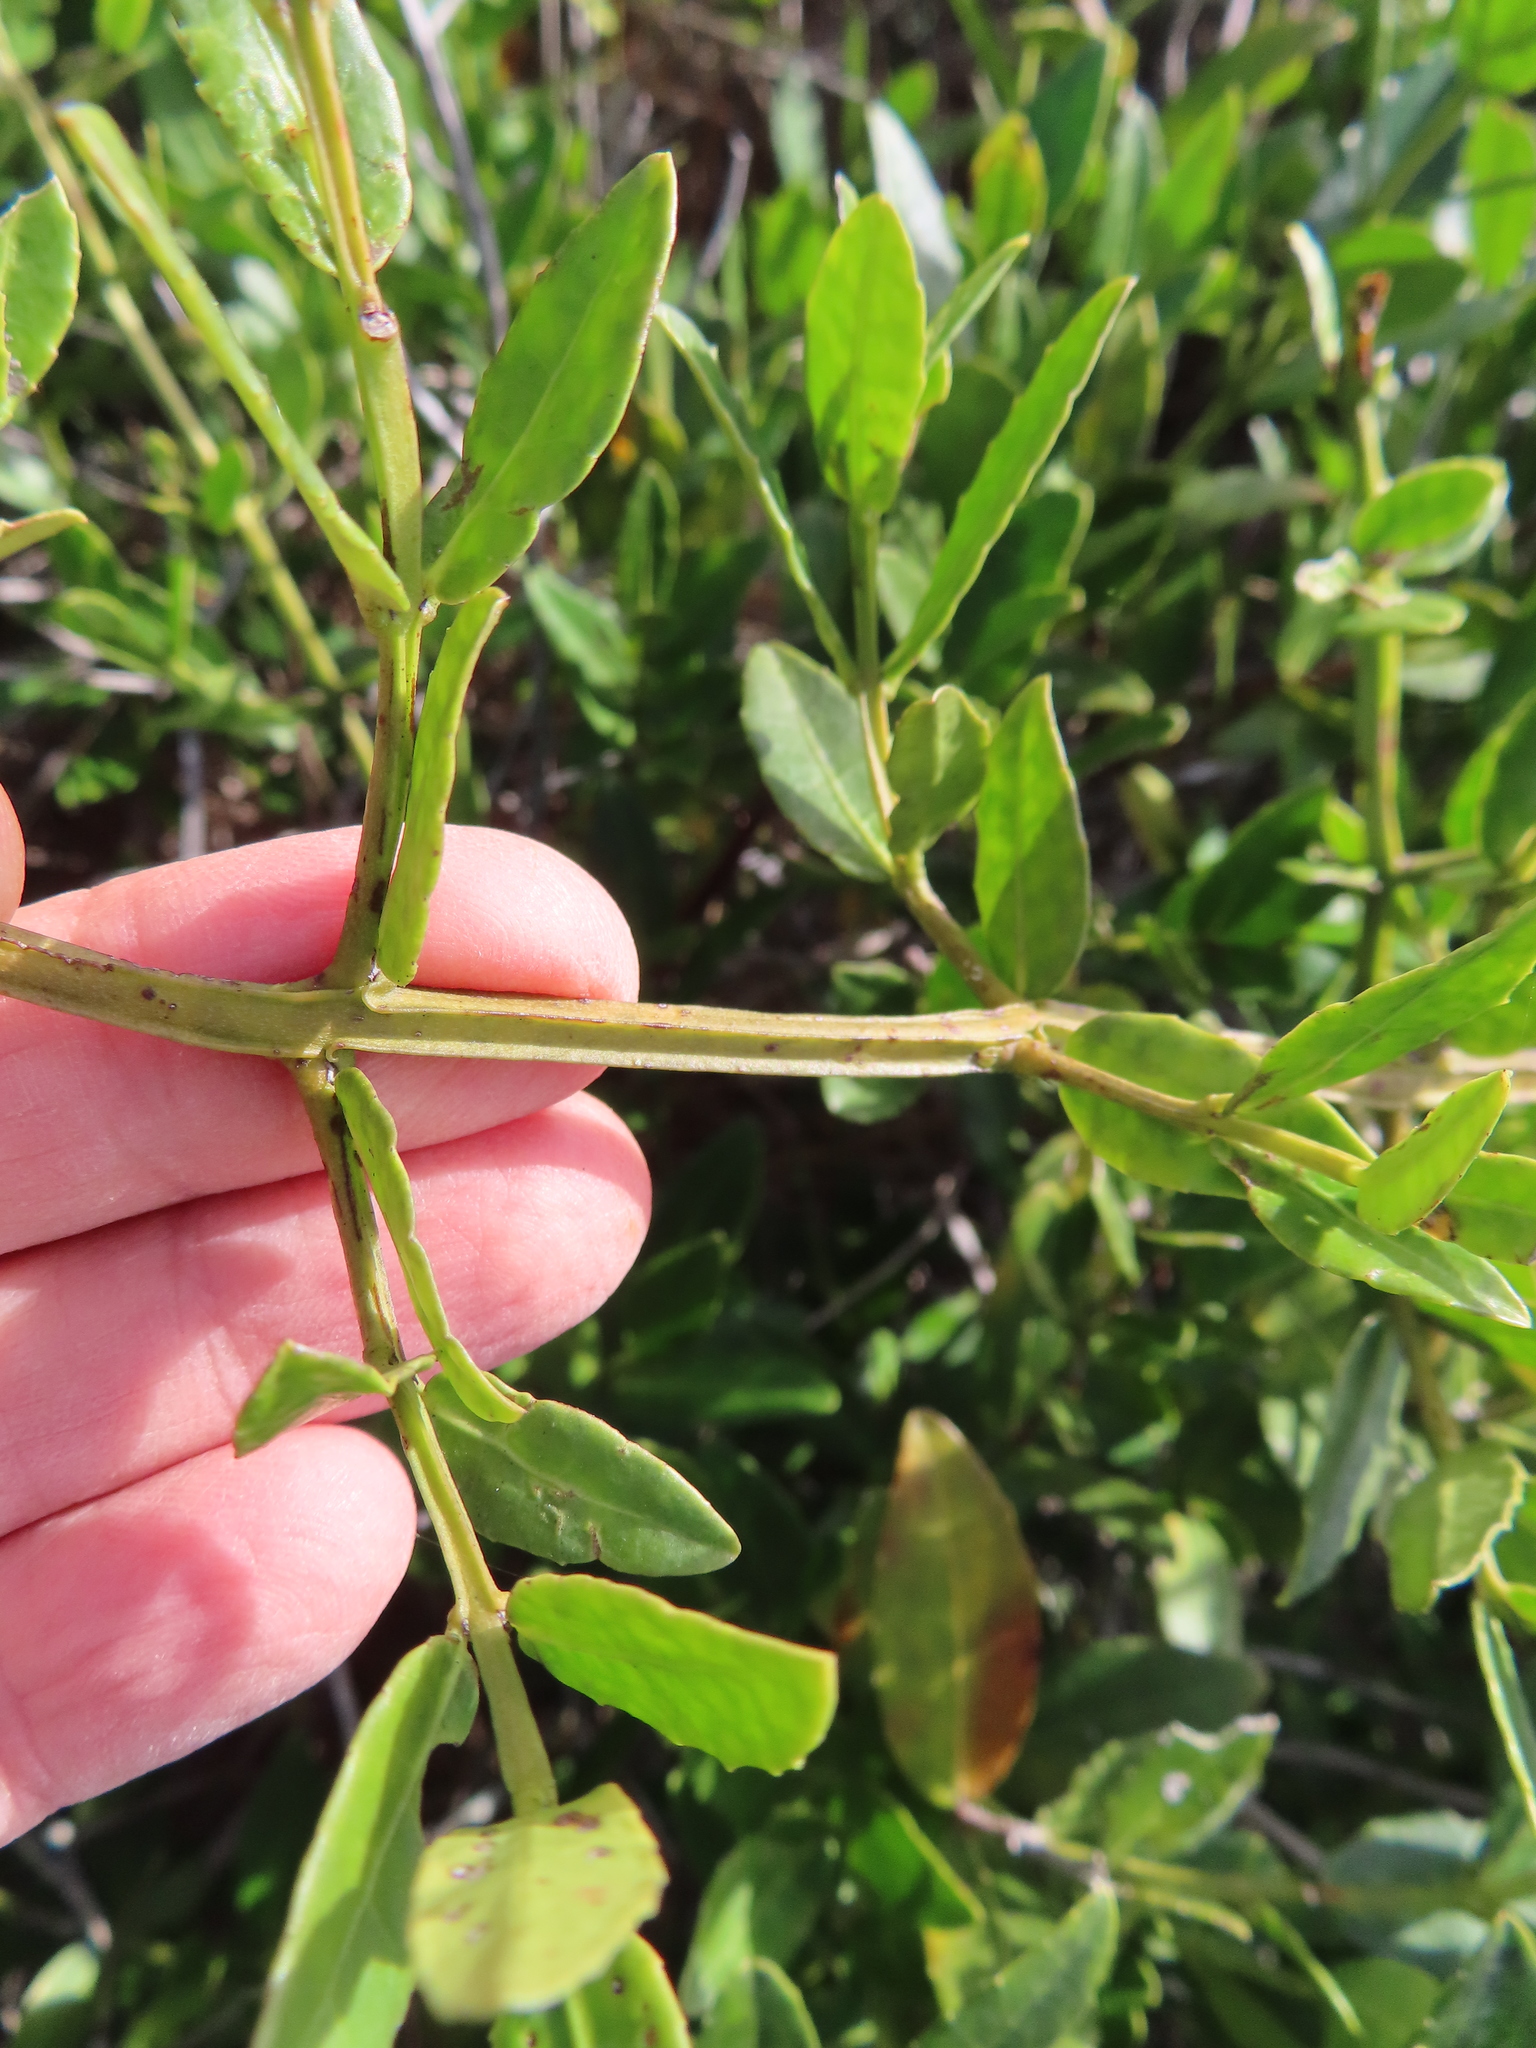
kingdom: Plantae
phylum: Tracheophyta
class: Magnoliopsida
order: Celastrales
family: Celastraceae
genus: Lauridia
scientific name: Lauridia tetragona
